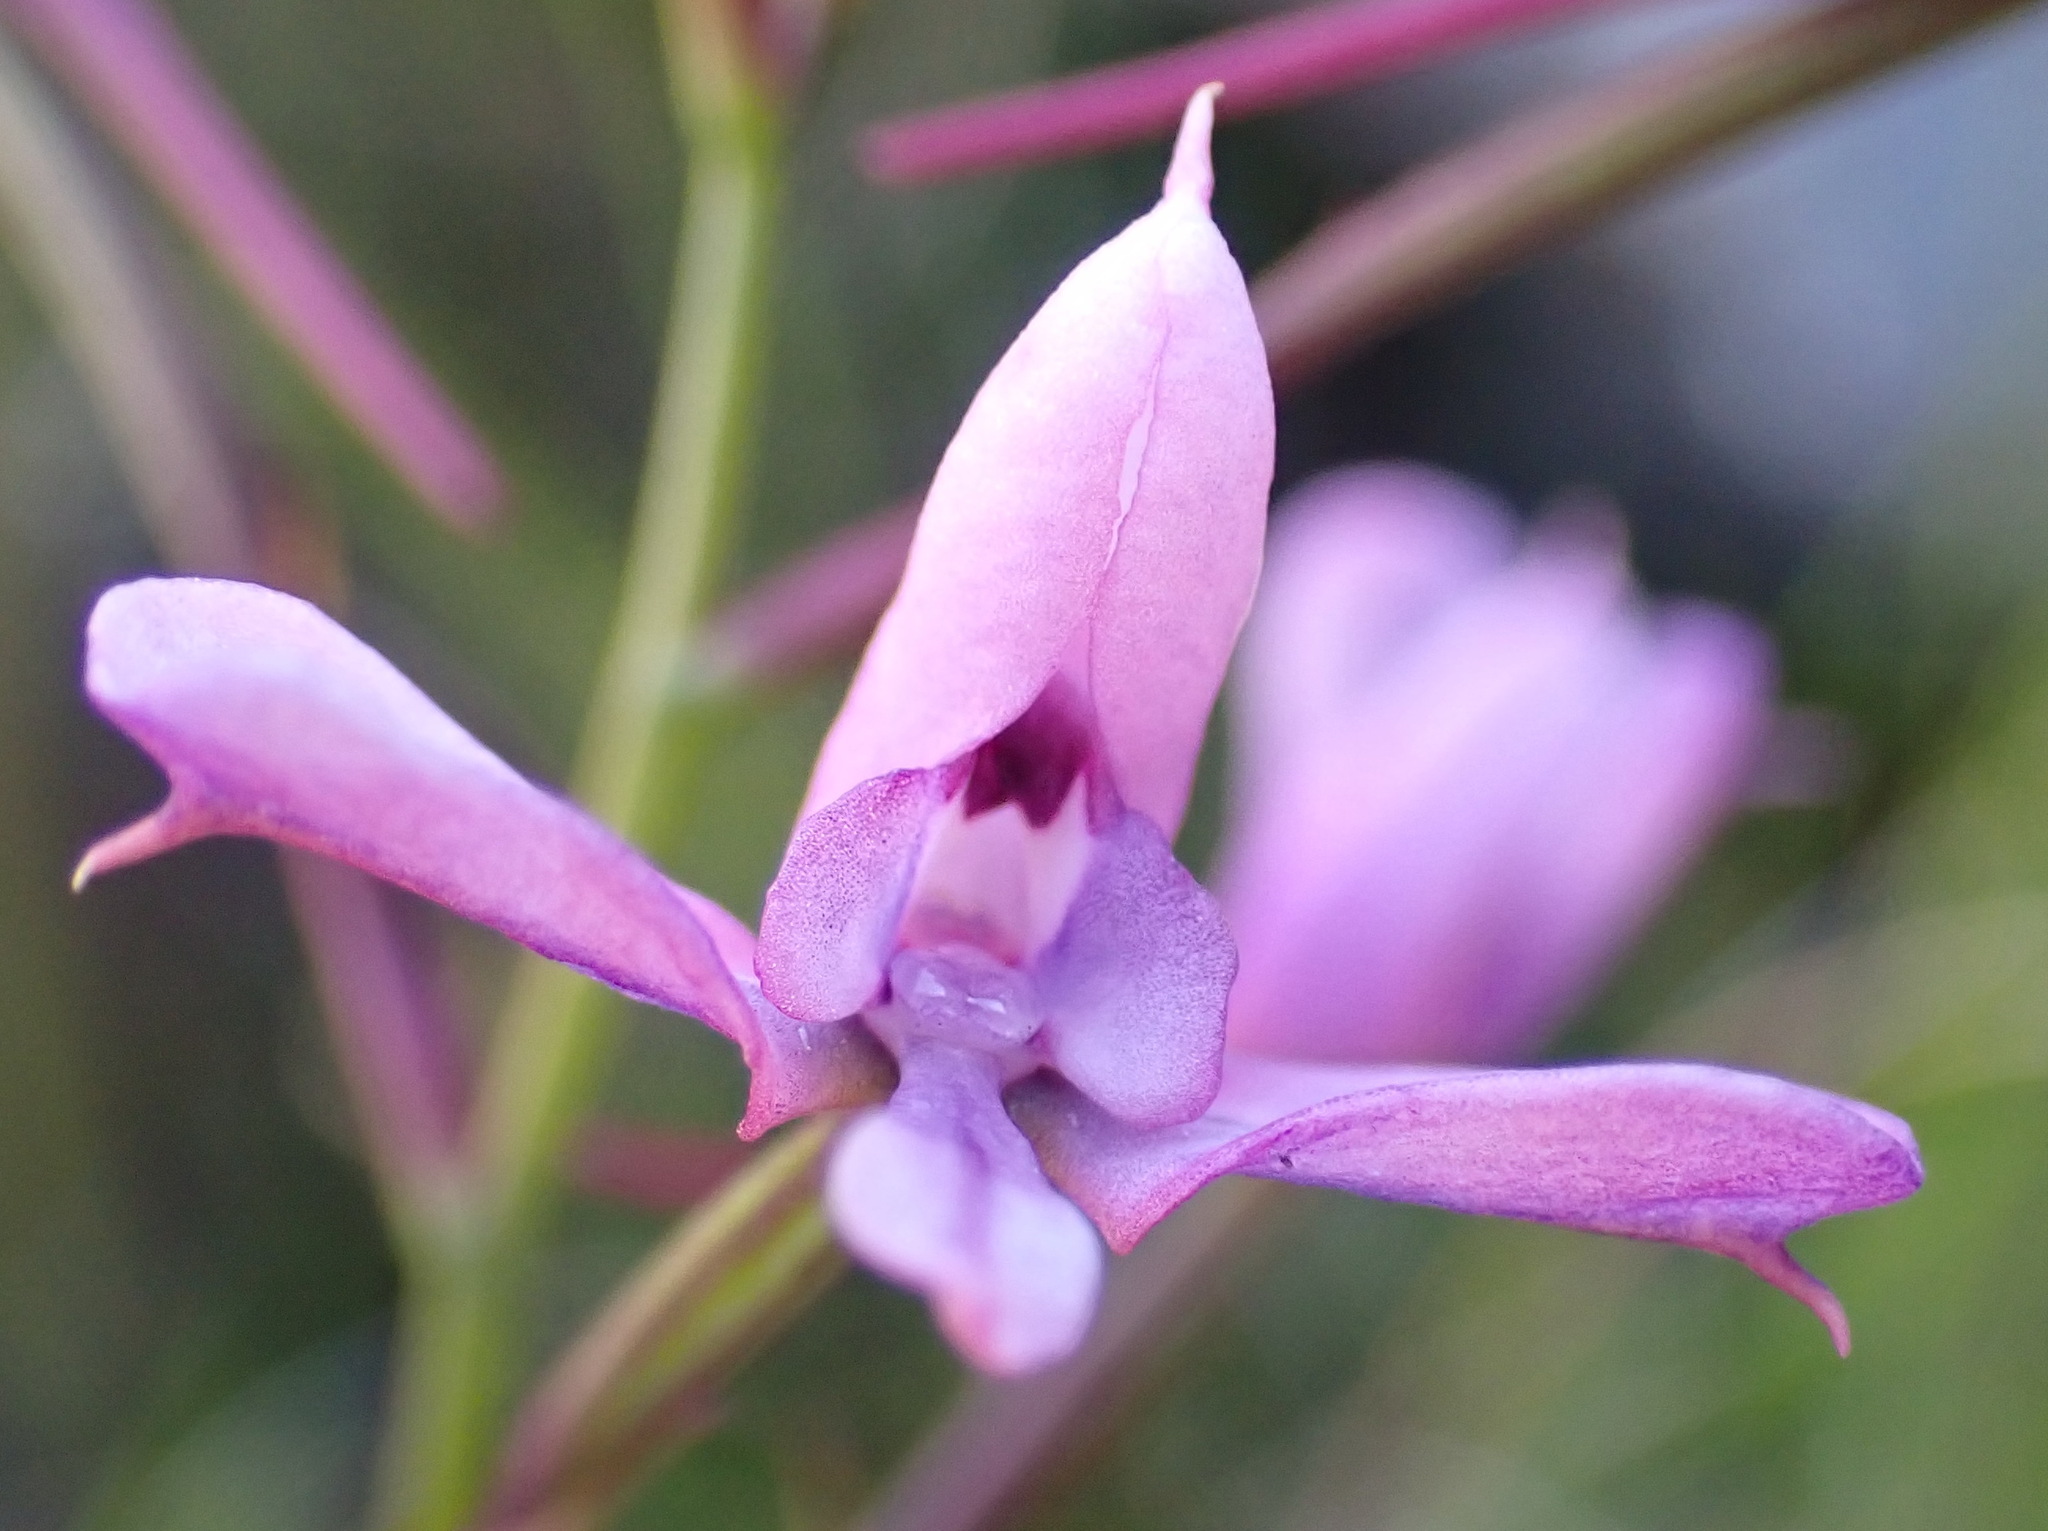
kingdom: Plantae
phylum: Tracheophyta
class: Liliopsida
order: Asparagales
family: Orchidaceae
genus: Disa
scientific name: Disa arida
